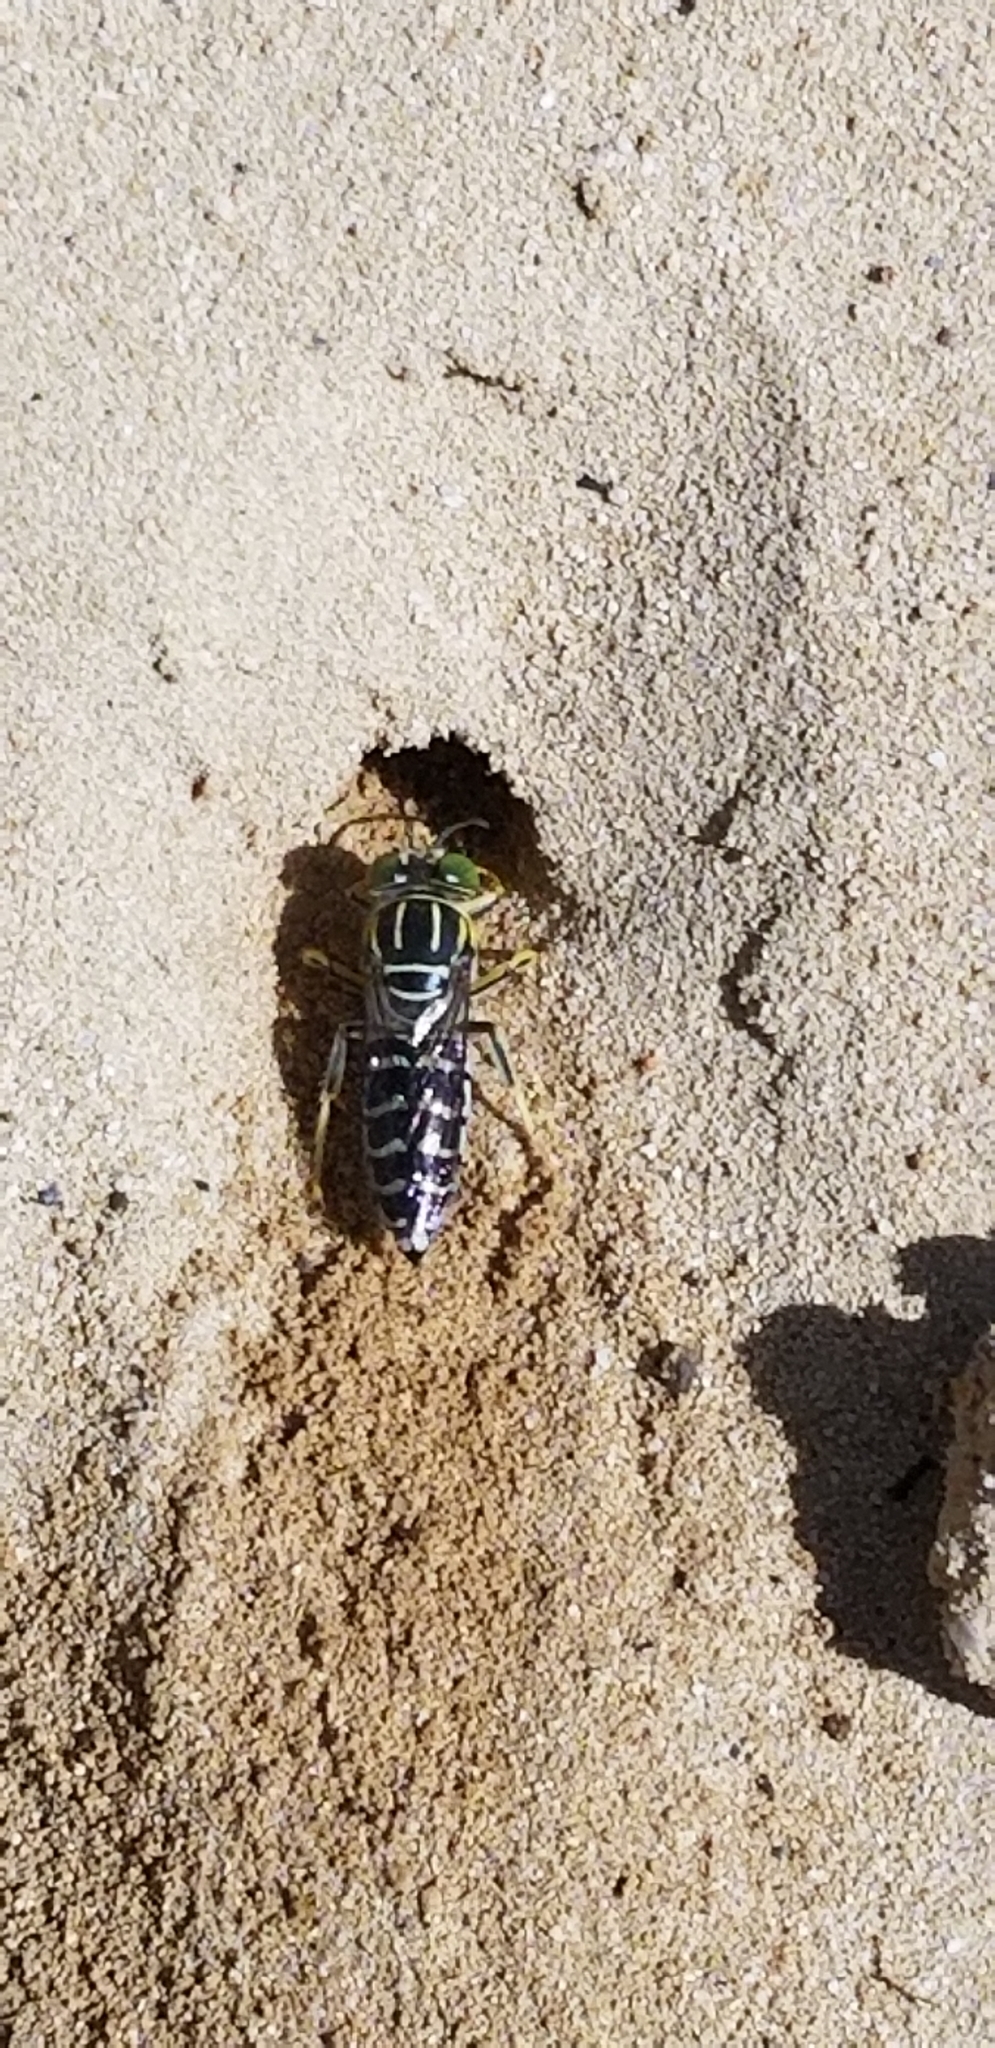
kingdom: Animalia
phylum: Arthropoda
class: Insecta
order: Hymenoptera
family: Crabronidae
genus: Stictia
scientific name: Stictia signata
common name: Sand wasp
